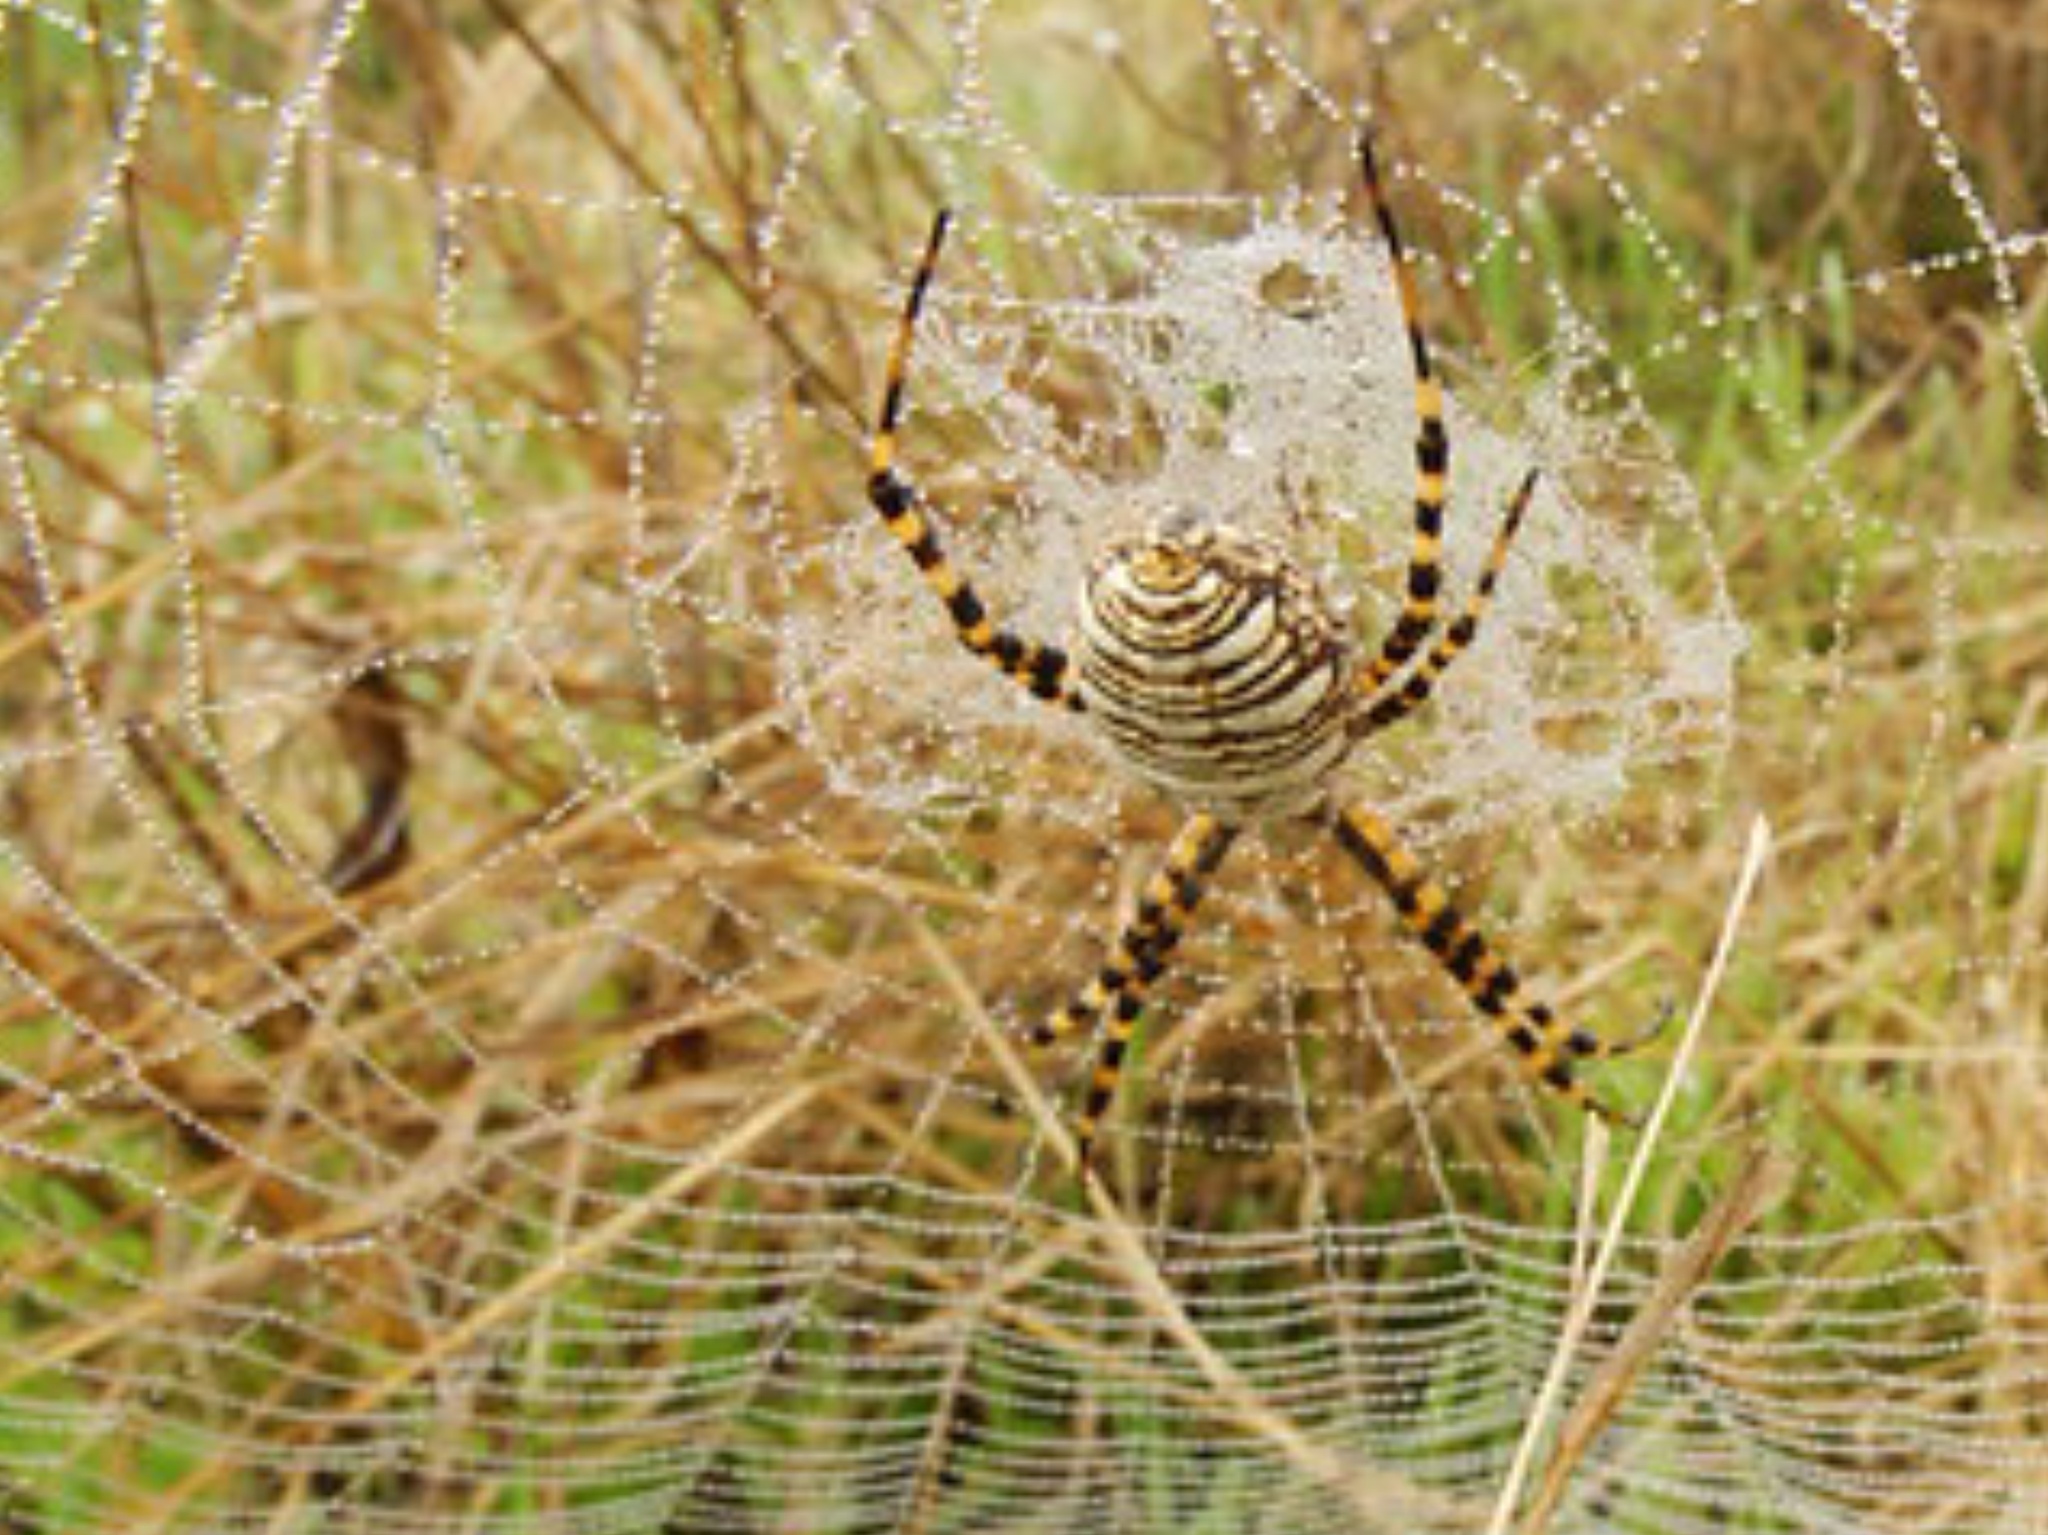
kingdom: Animalia
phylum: Arthropoda
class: Arachnida
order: Araneae
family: Araneidae
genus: Argiope
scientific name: Argiope trifasciata
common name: Banded garden spider
